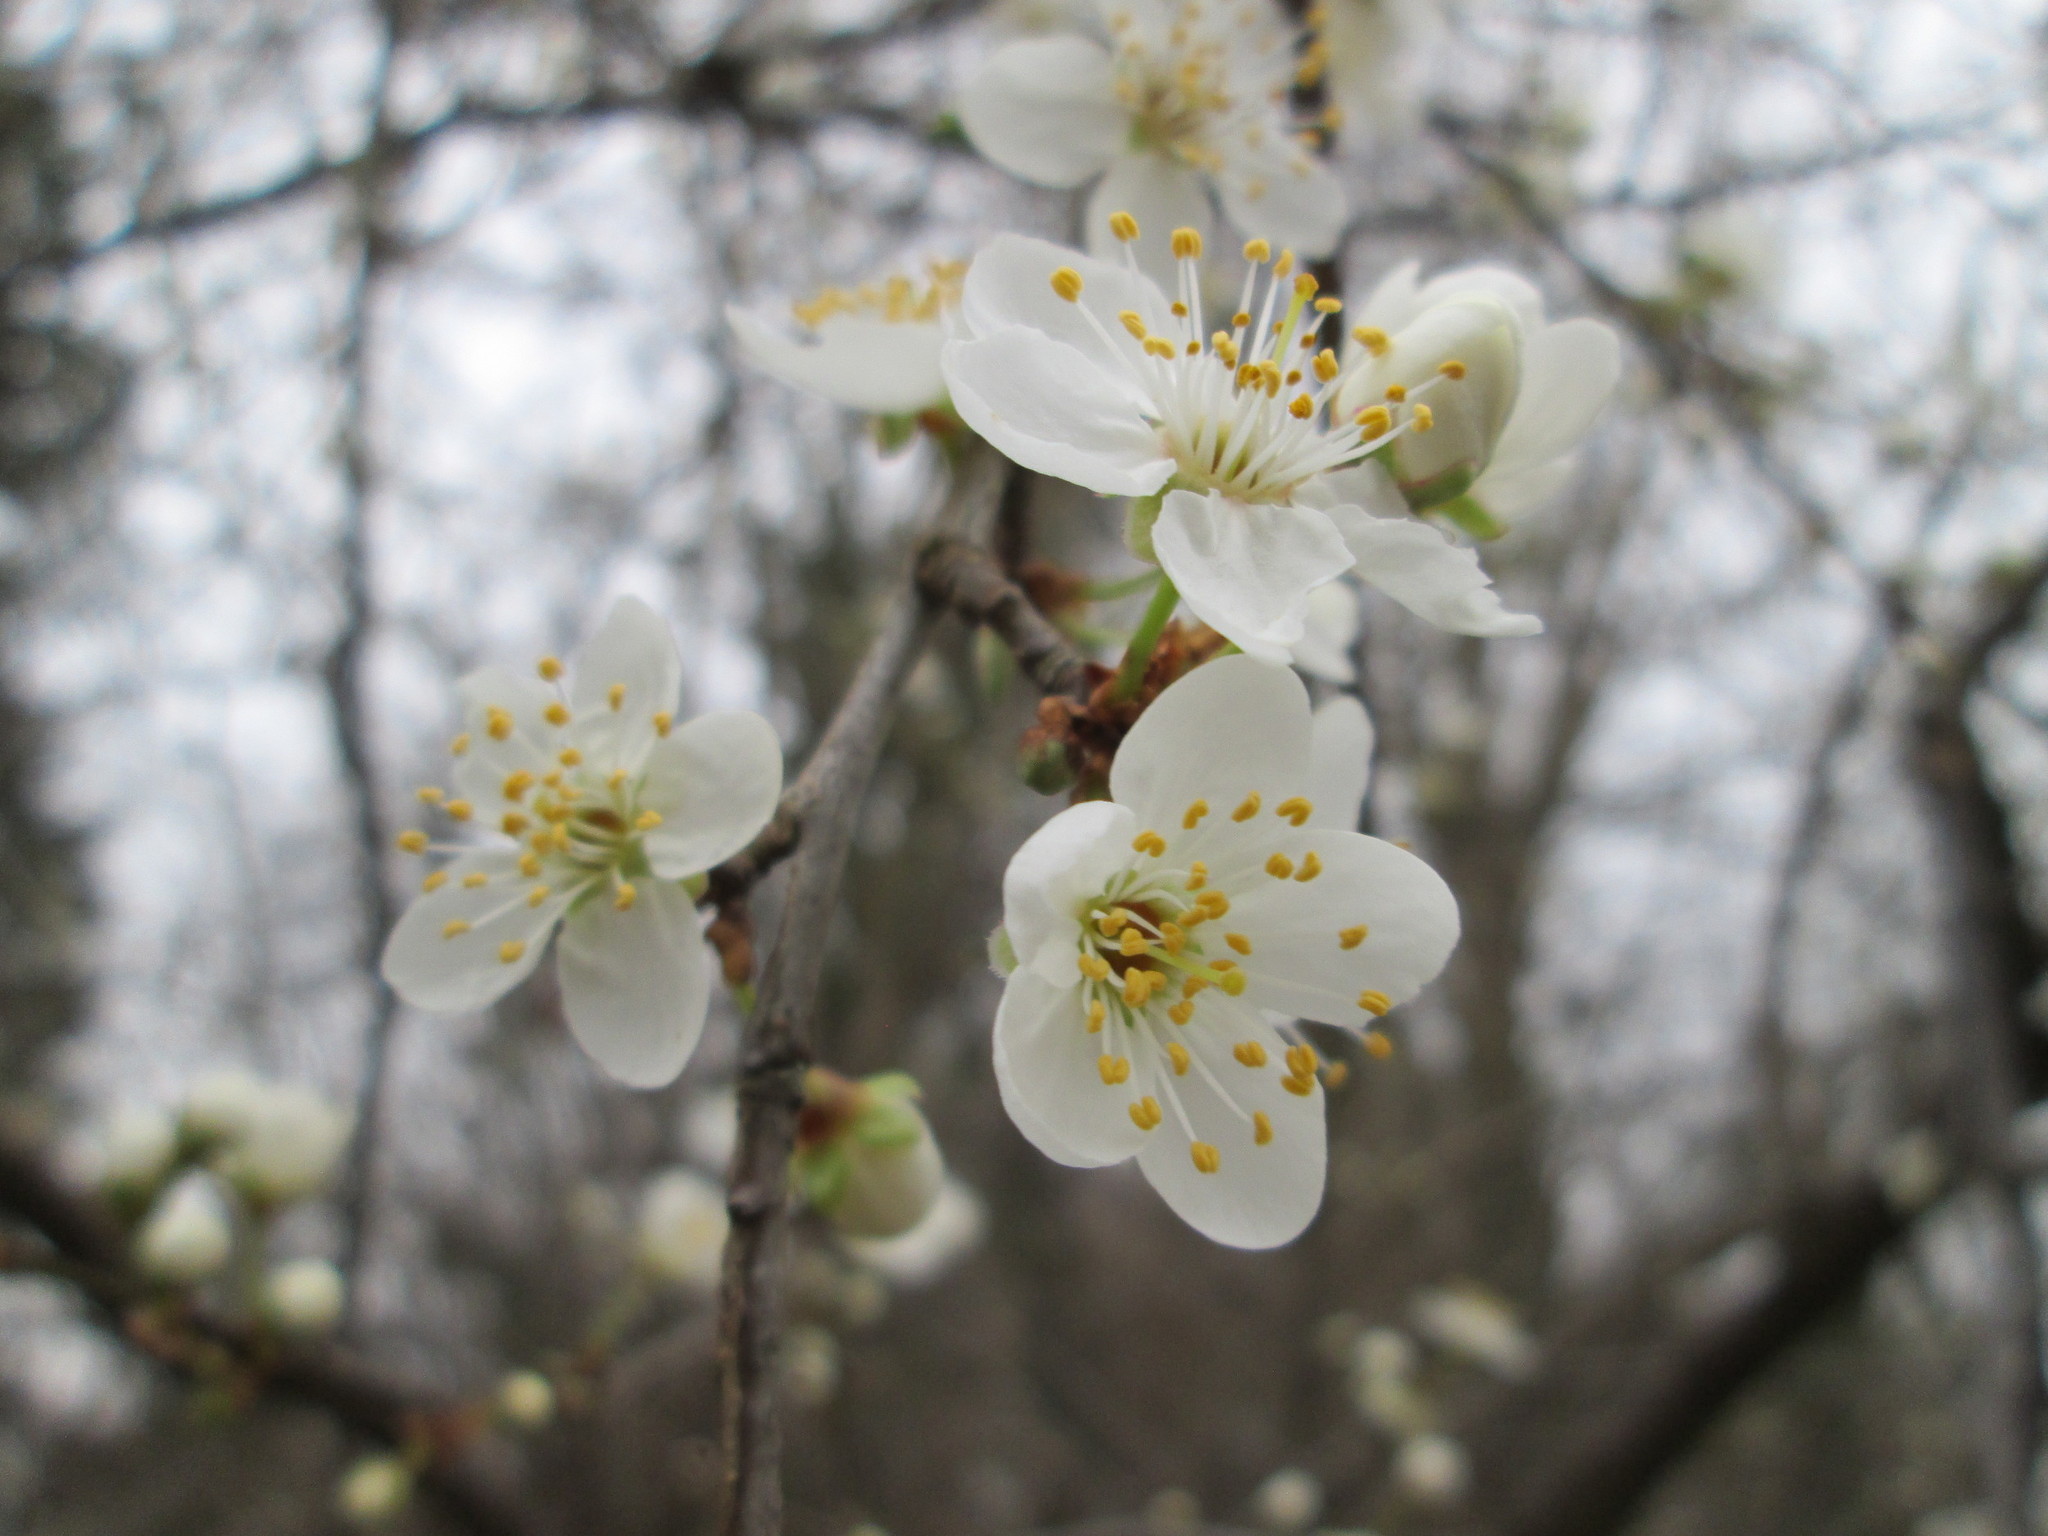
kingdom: Plantae
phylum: Tracheophyta
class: Magnoliopsida
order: Rosales
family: Rosaceae
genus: Prunus
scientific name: Prunus cerasifera
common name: Cherry plum
